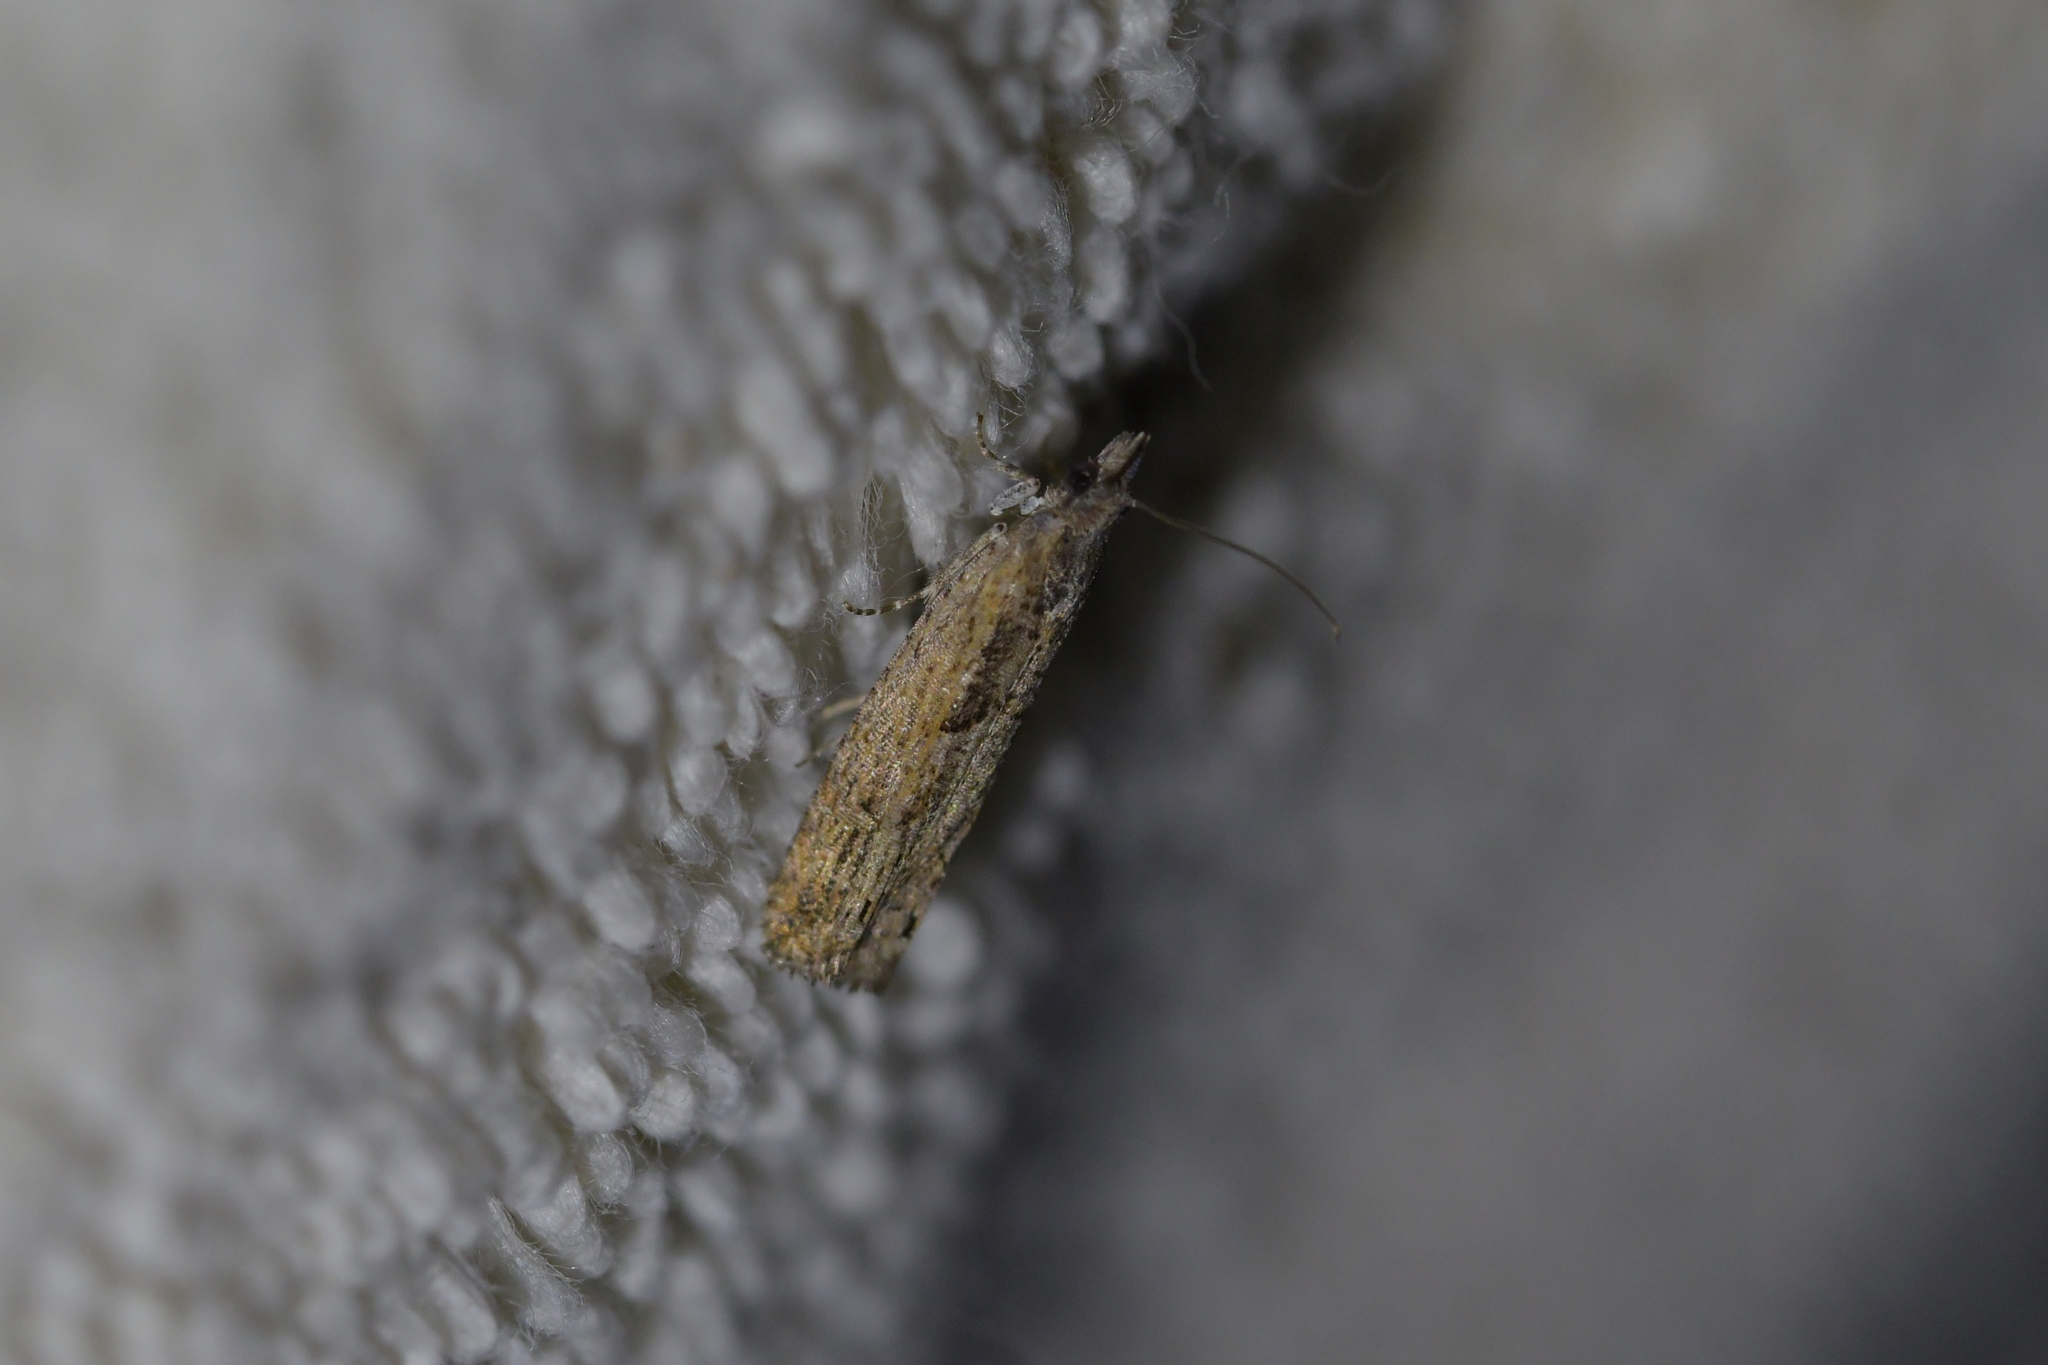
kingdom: Animalia
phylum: Arthropoda
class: Insecta
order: Lepidoptera
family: Tortricidae
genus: Strepsicrates
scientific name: Strepsicrates macropetana
